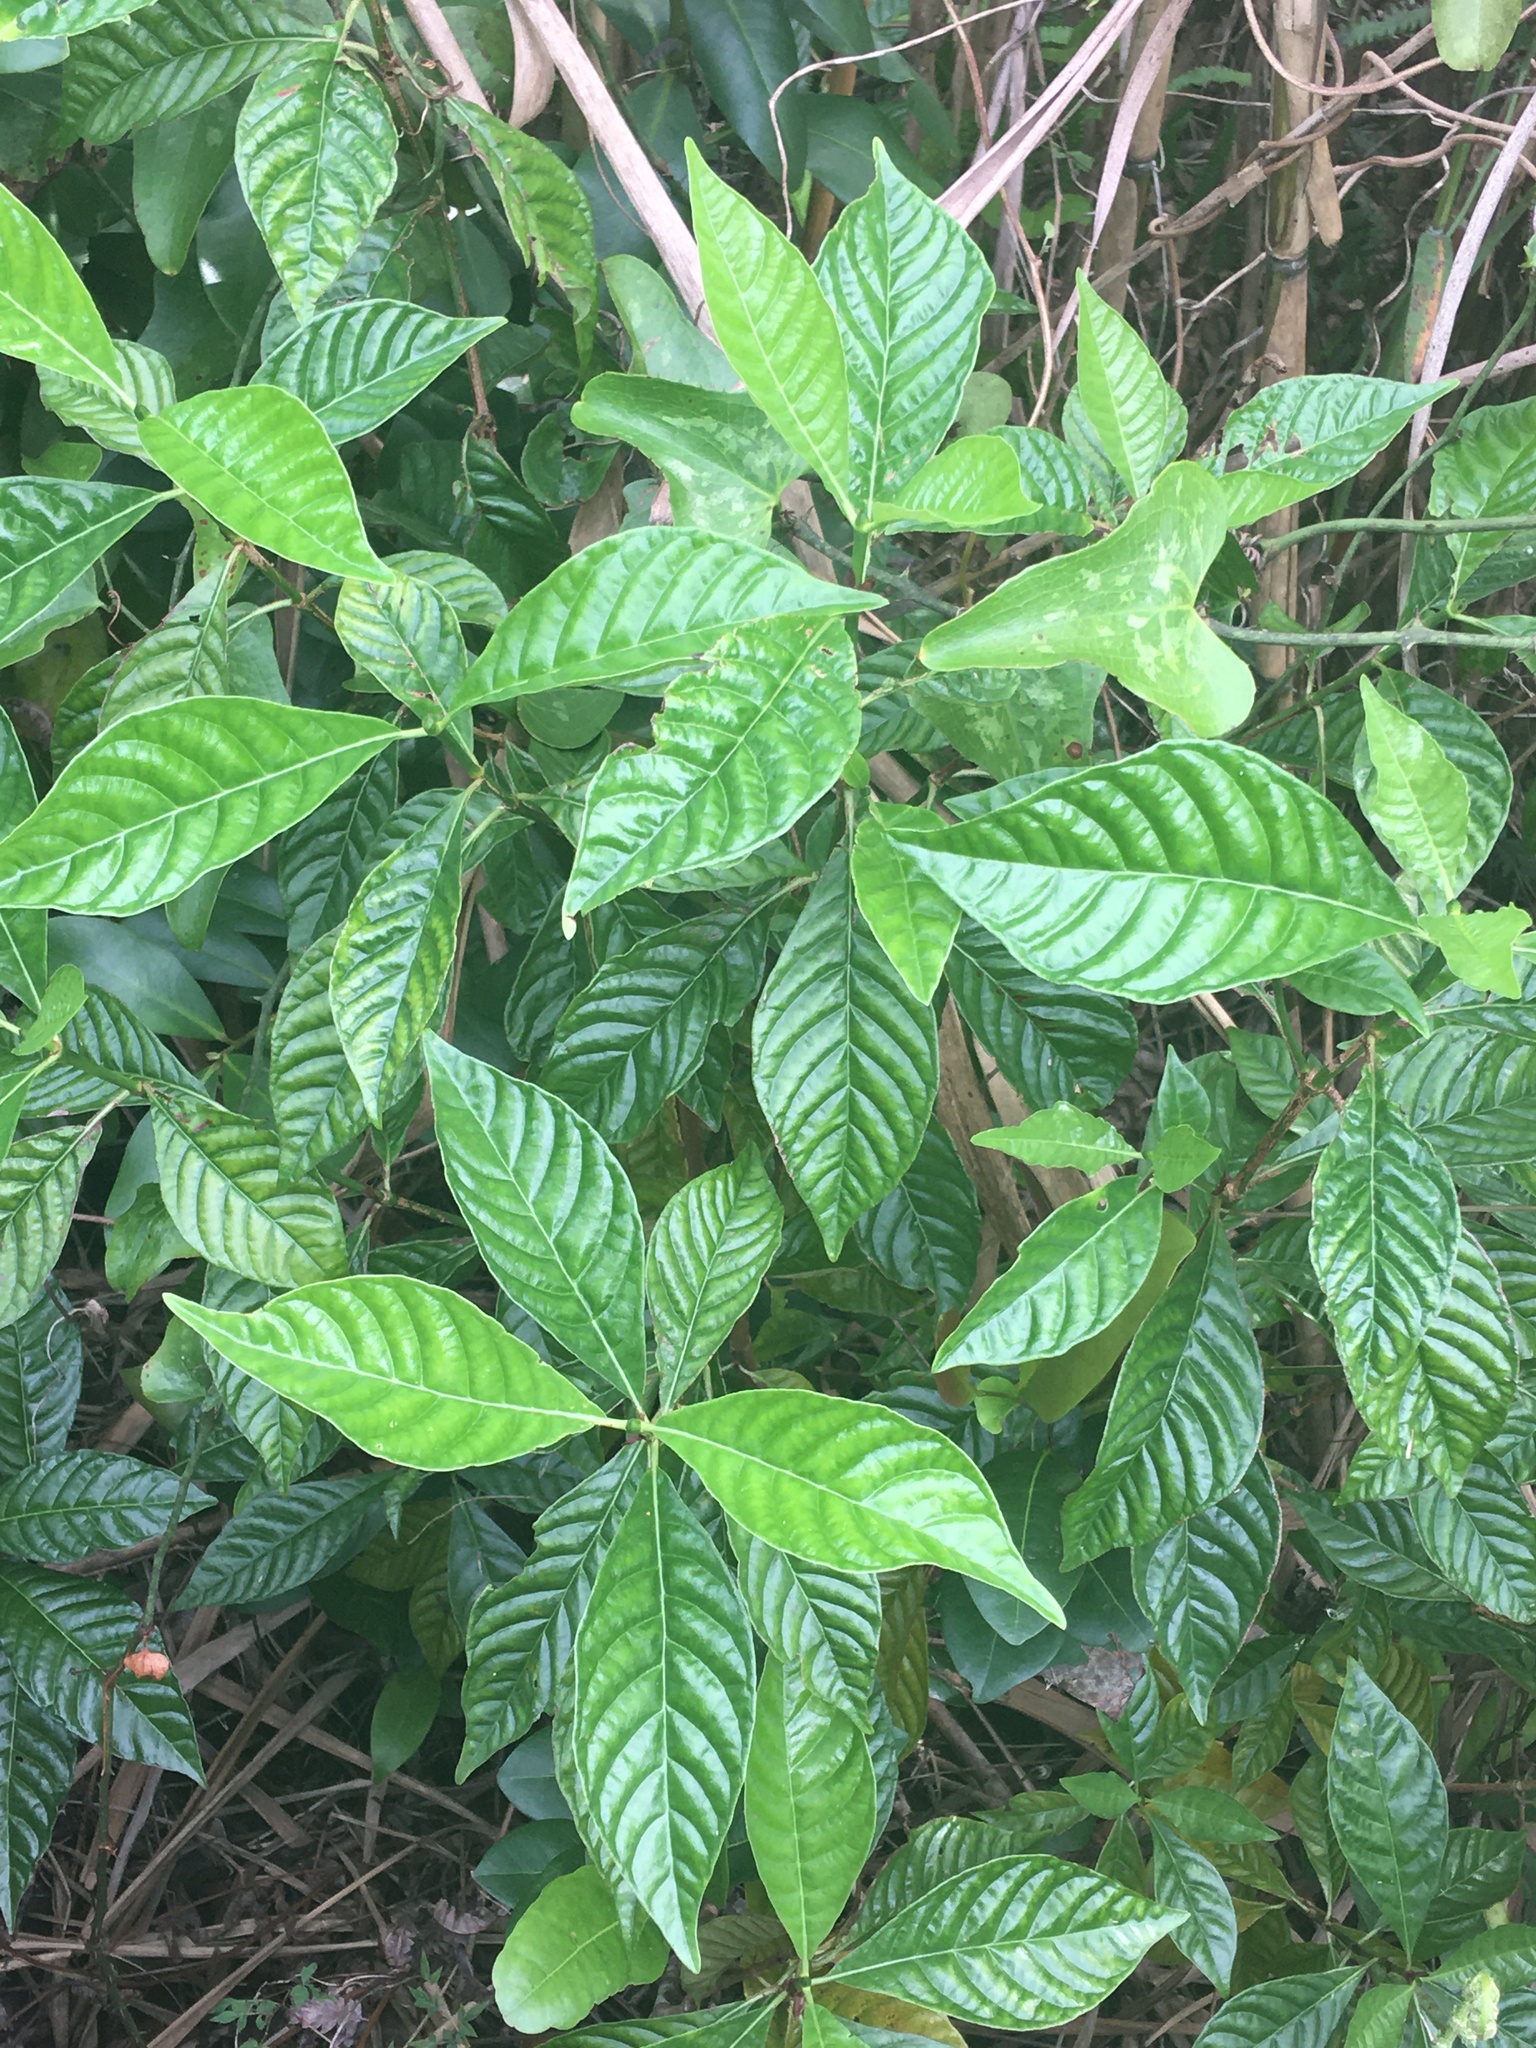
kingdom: Plantae
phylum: Tracheophyta
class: Magnoliopsida
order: Gentianales
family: Rubiaceae
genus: Psychotria
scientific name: Psychotria nervosa
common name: Bastard cankerberry
